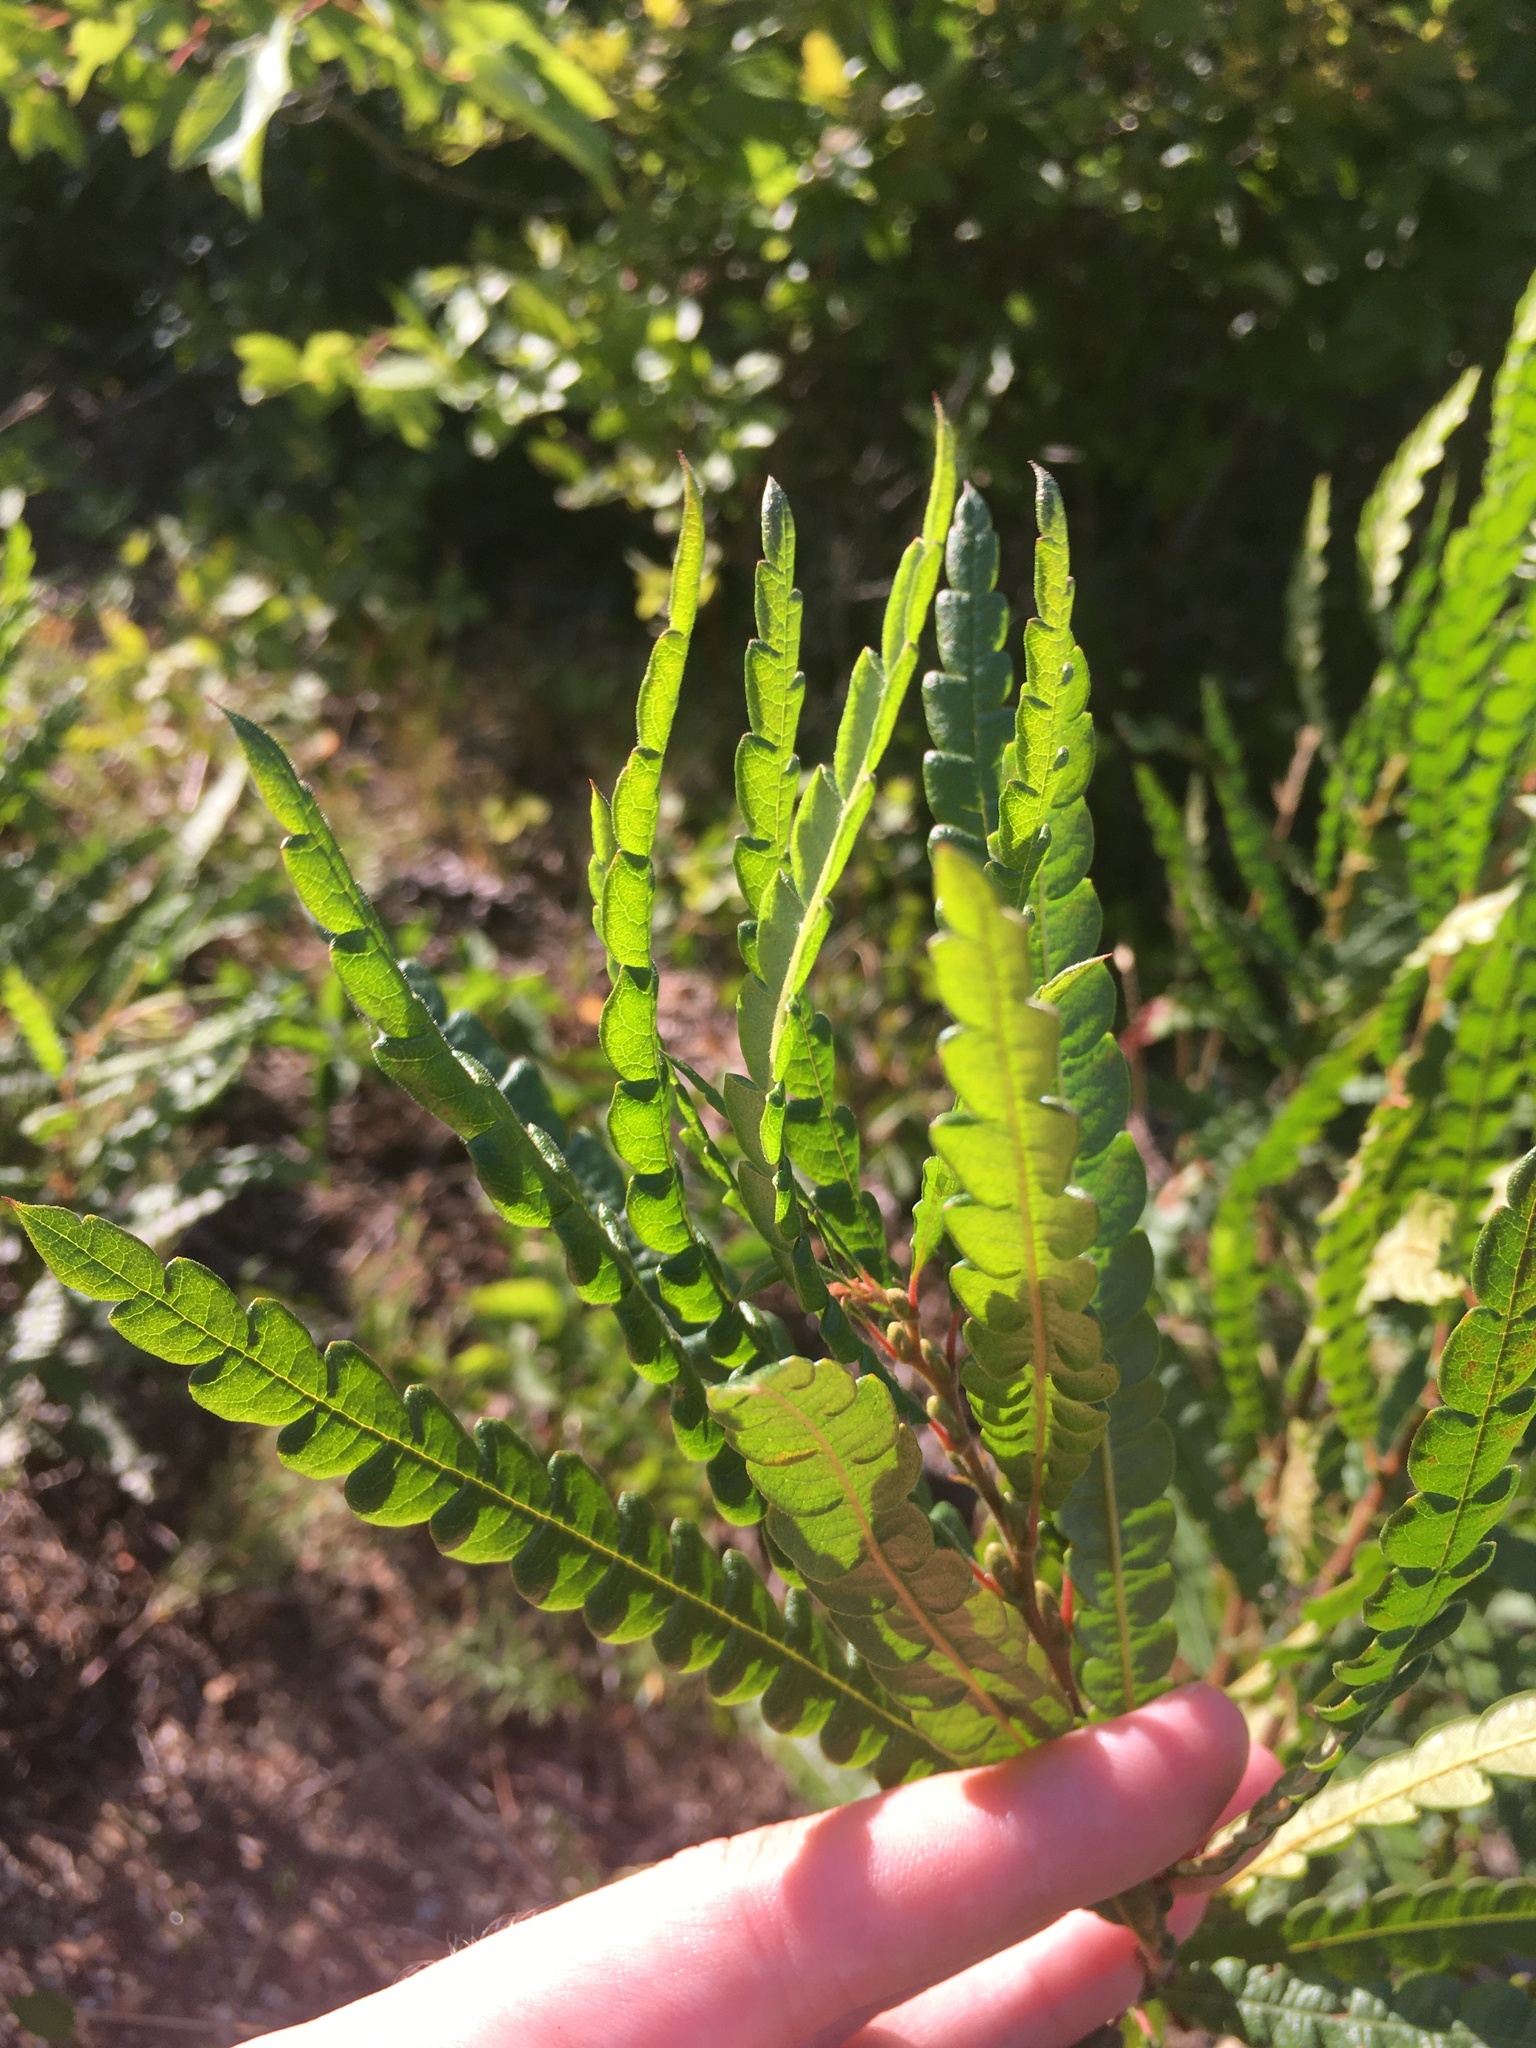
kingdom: Plantae
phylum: Tracheophyta
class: Magnoliopsida
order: Fagales
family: Myricaceae
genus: Comptonia
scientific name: Comptonia peregrina
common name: Sweet-fern
